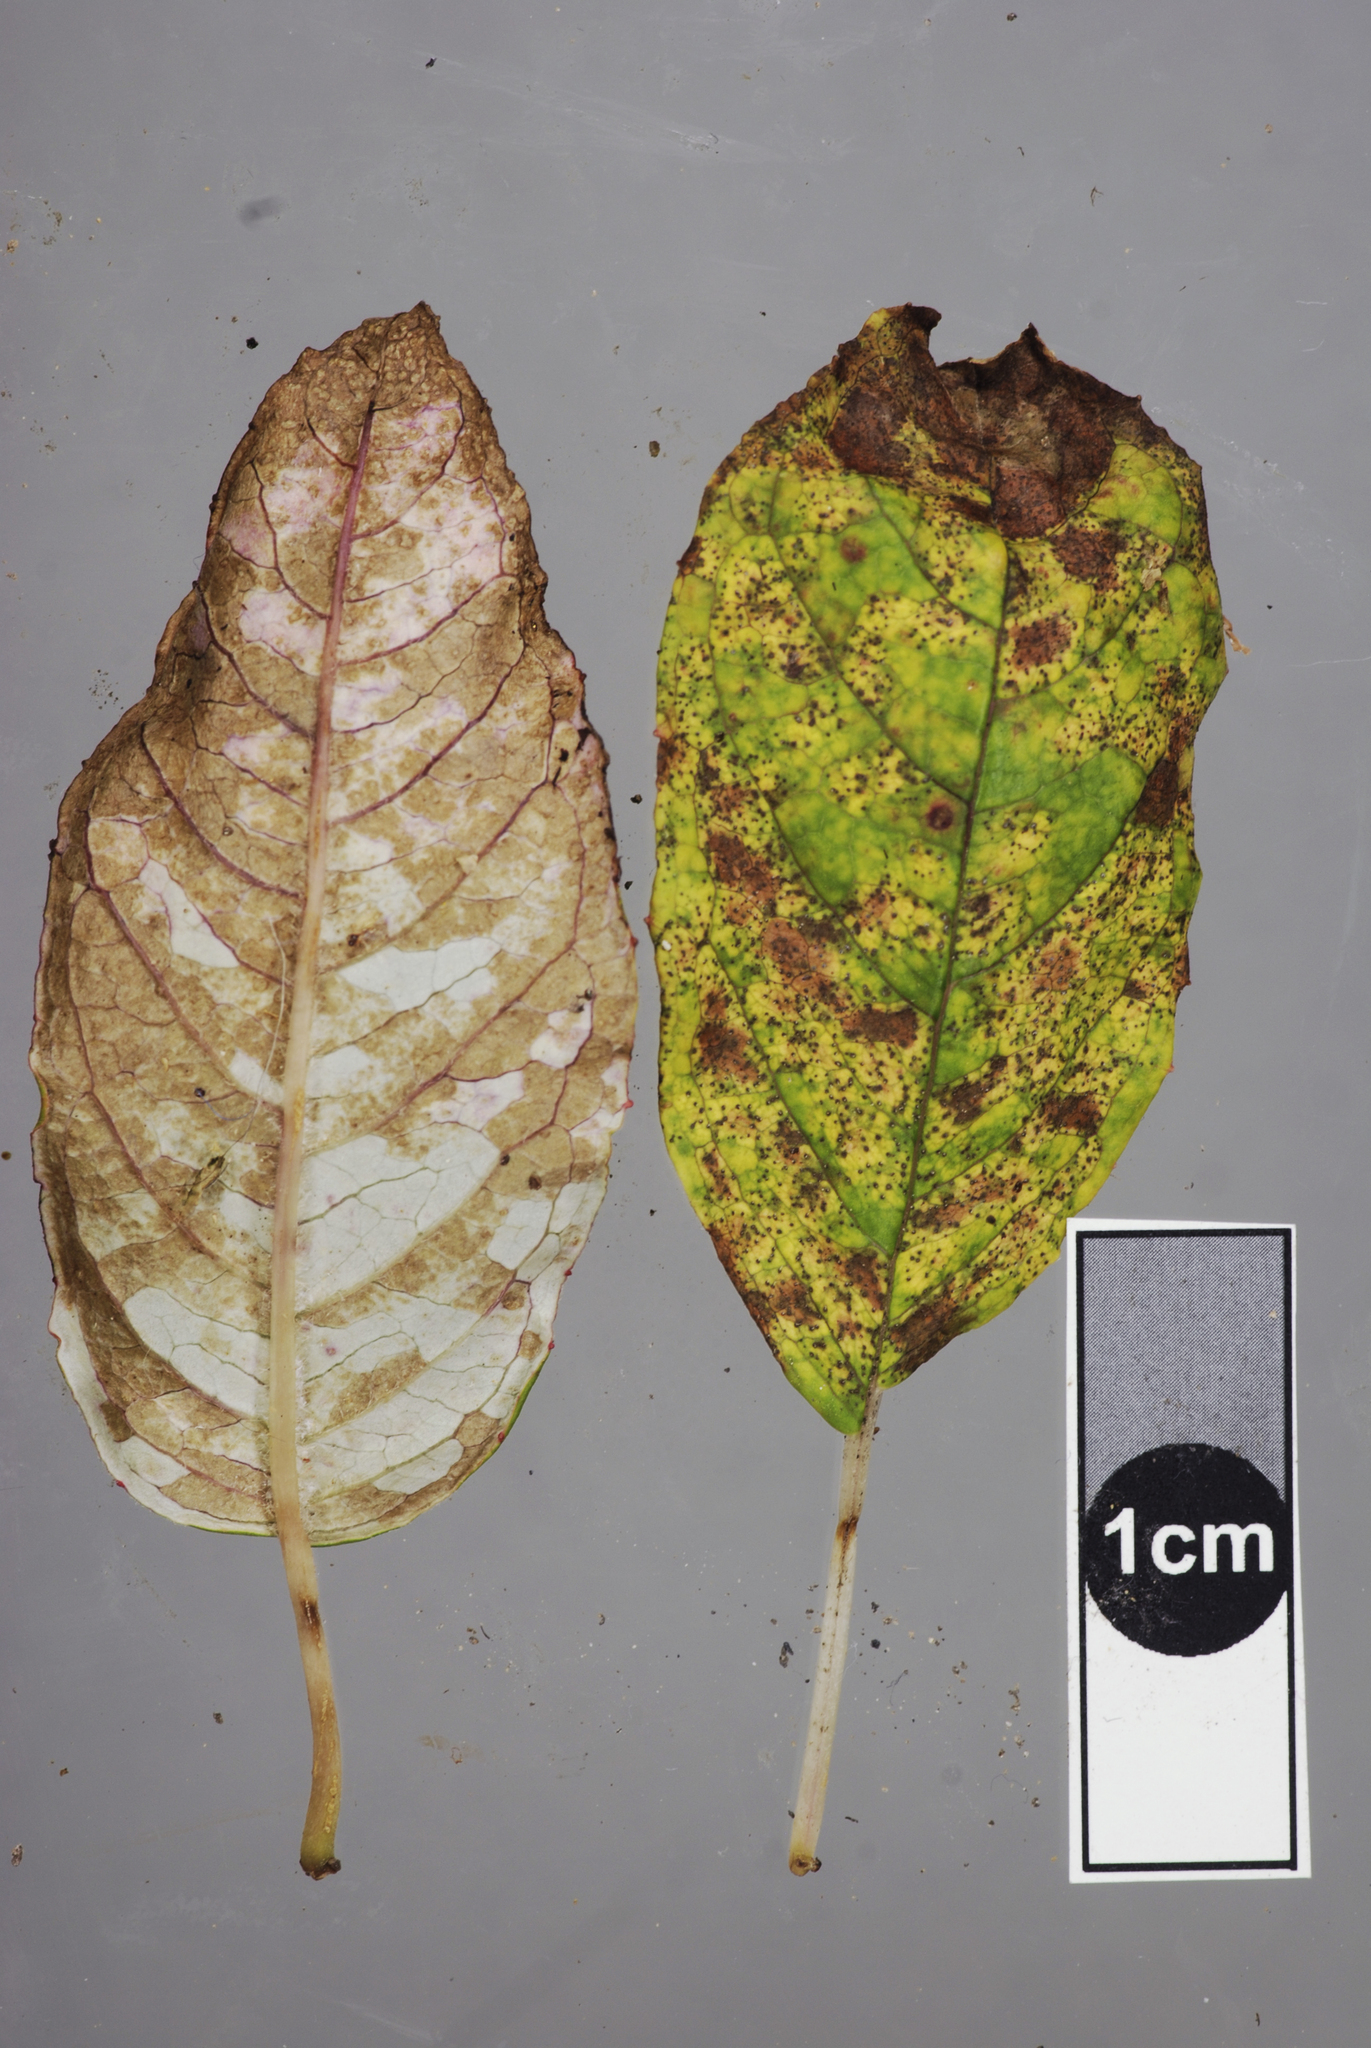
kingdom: Fungi
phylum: Ascomycota
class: Dothideomycetes
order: Mycosphaerellales
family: Mycosphaerellaceae
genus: Septoria
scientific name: Septoria alpicola
